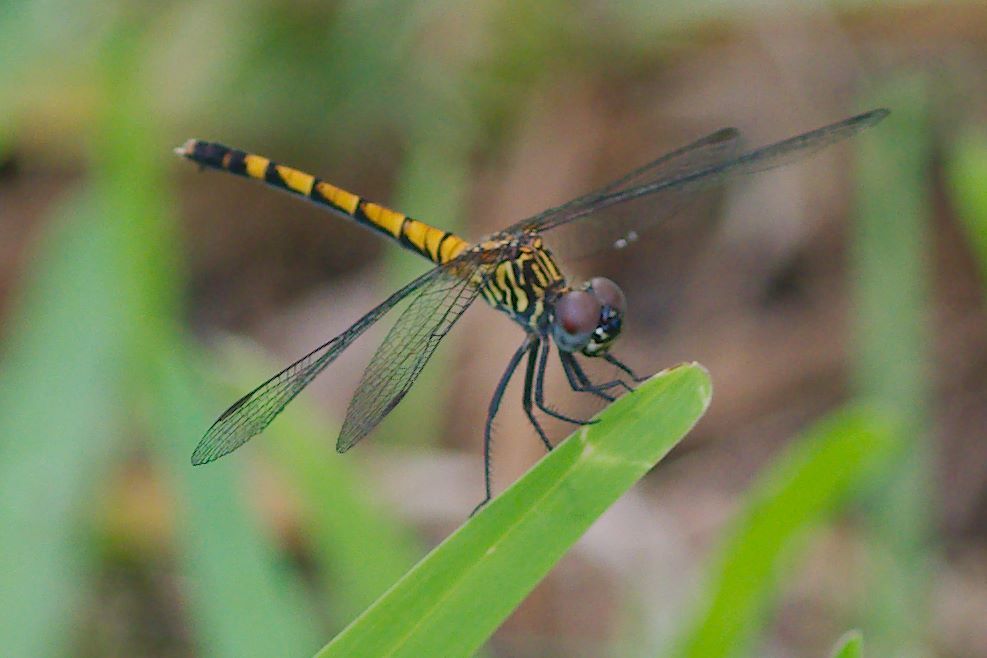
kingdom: Animalia
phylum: Arthropoda
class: Insecta
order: Odonata
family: Libellulidae
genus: Erythrodiplax
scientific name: Erythrodiplax berenice
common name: Seaside dragonlet
